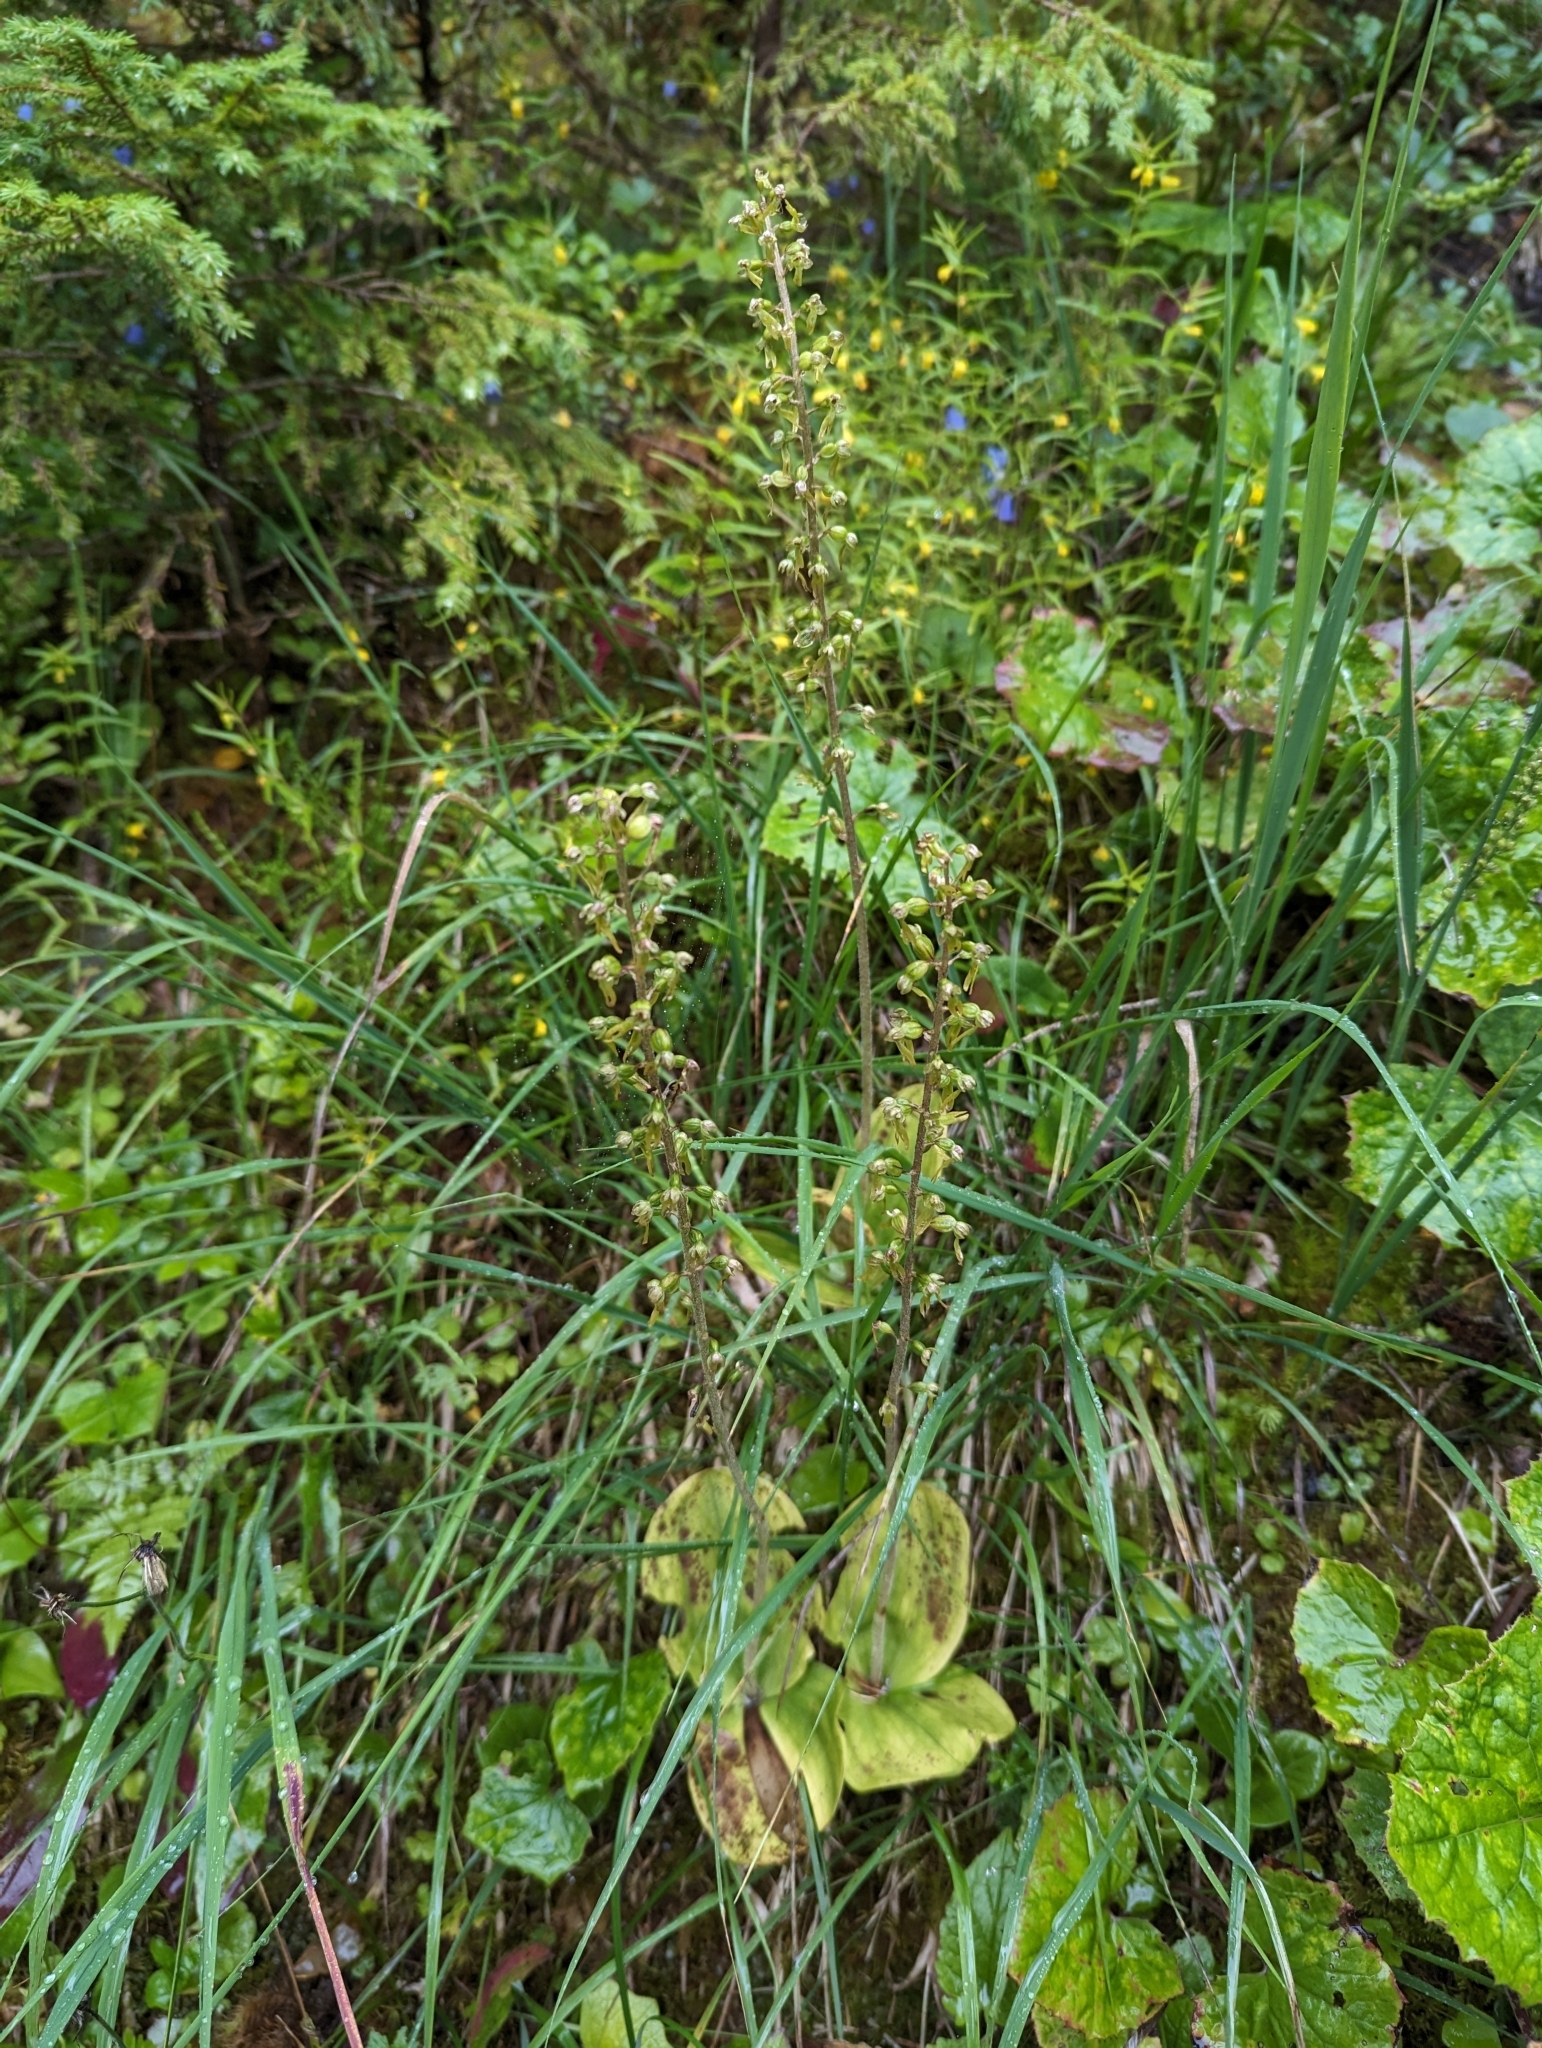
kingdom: Plantae
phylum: Tracheophyta
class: Liliopsida
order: Asparagales
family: Orchidaceae
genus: Neottia
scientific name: Neottia ovata
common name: Common twayblade
